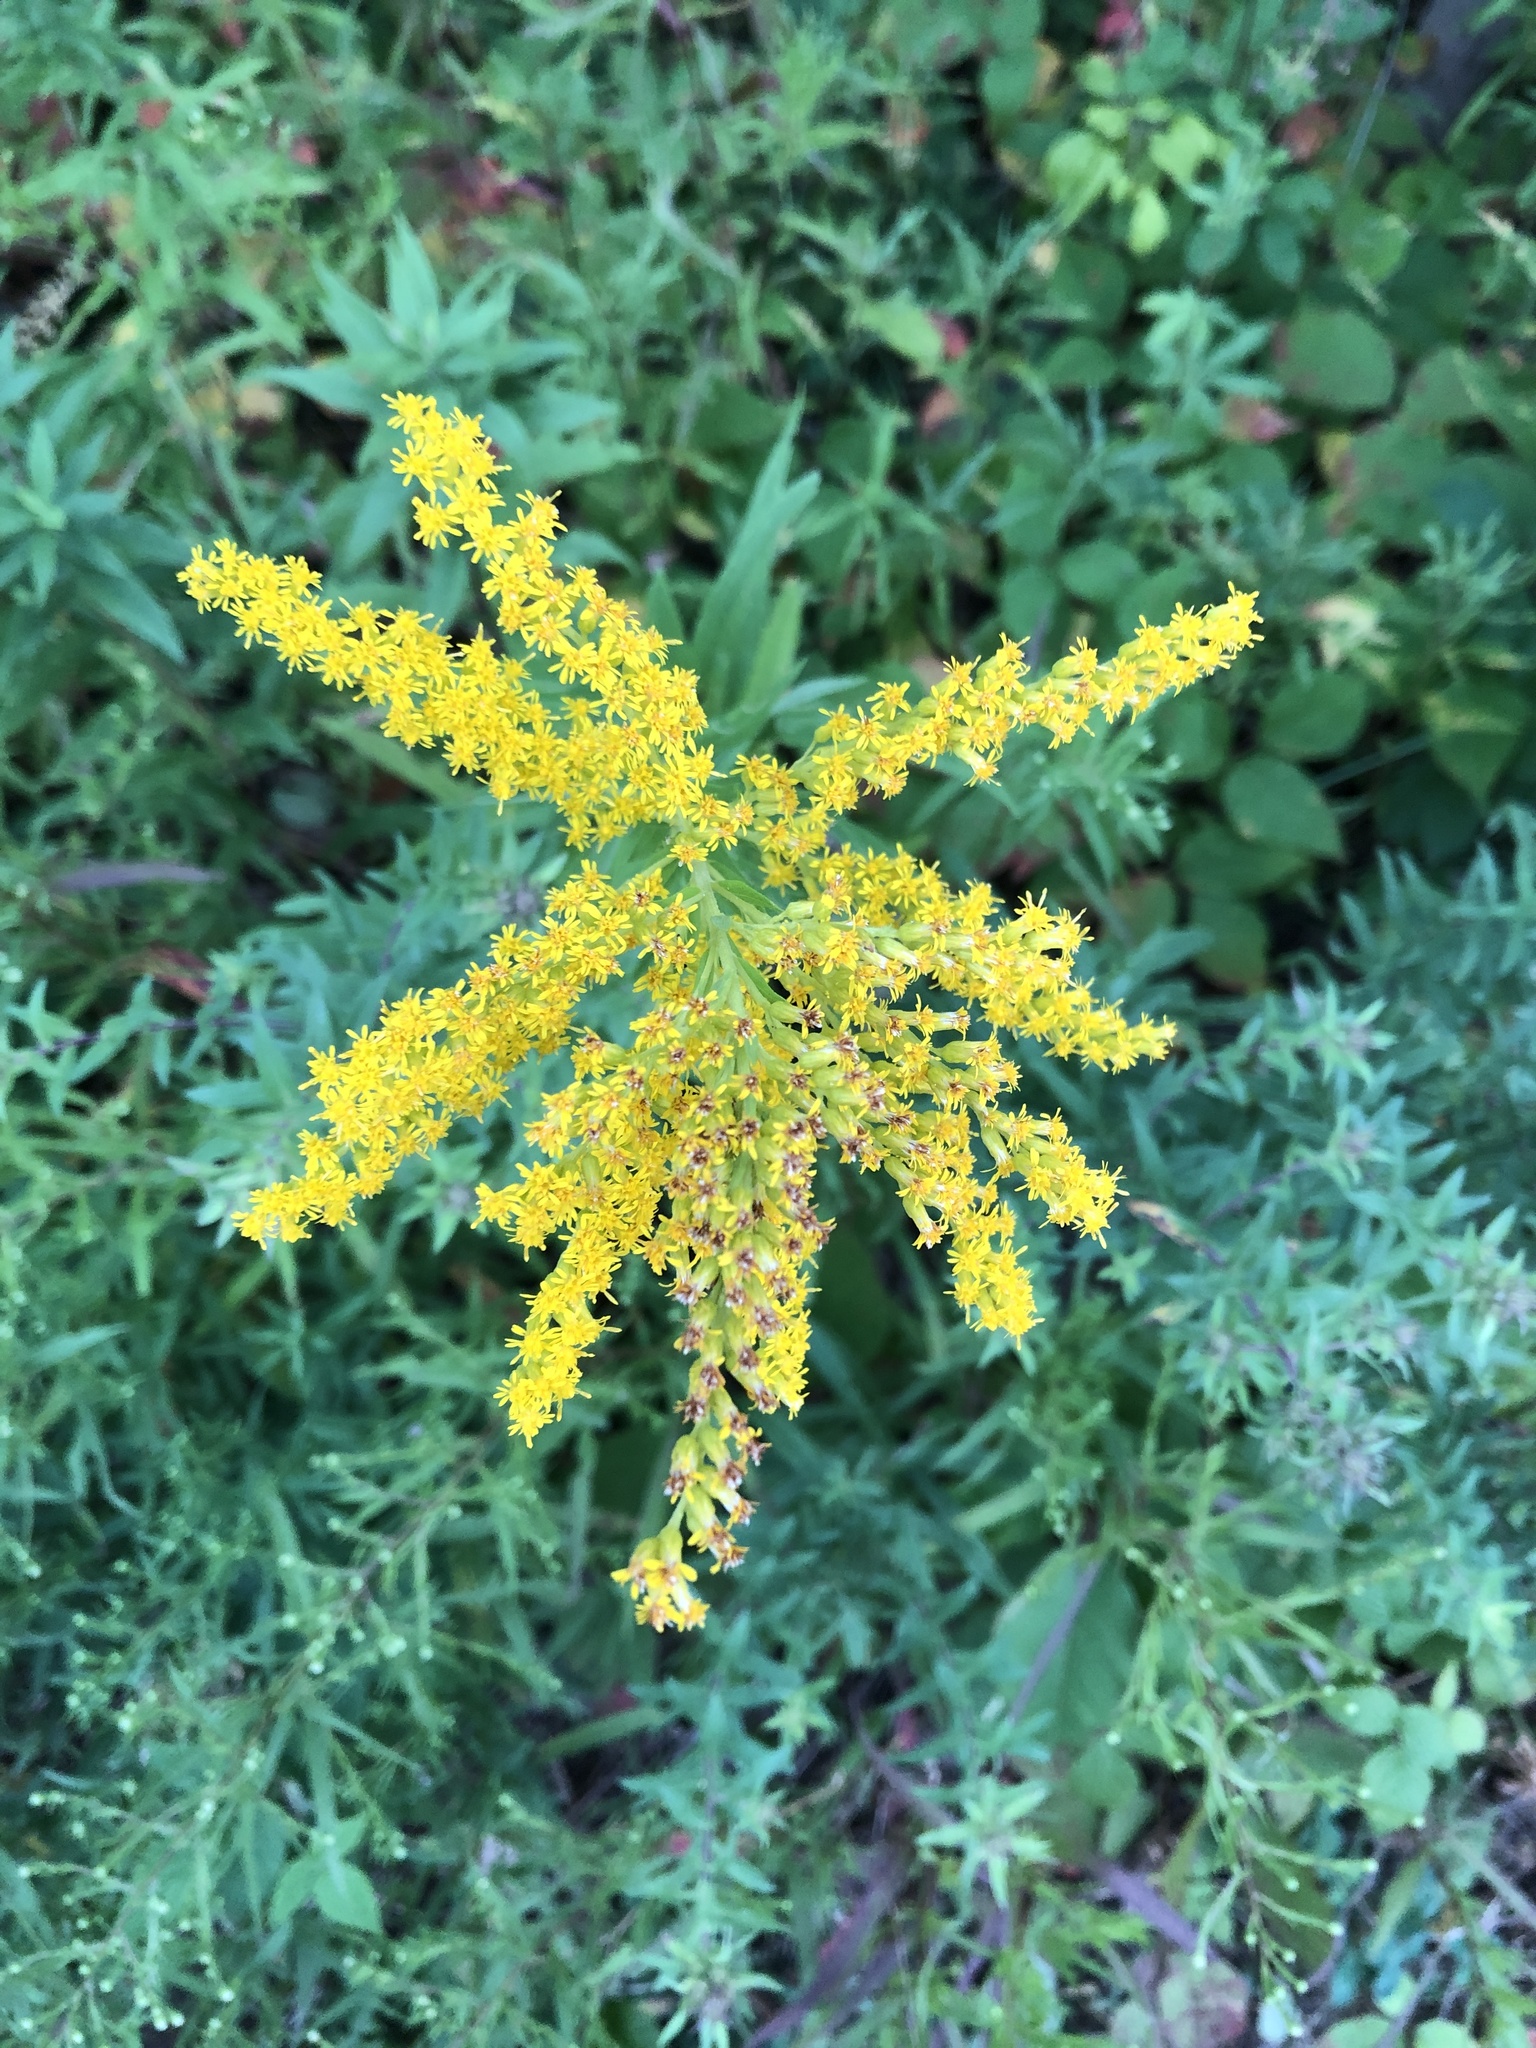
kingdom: Plantae
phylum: Tracheophyta
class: Magnoliopsida
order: Asterales
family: Asteraceae
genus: Solidago
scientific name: Solidago altissima
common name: Late goldenrod
